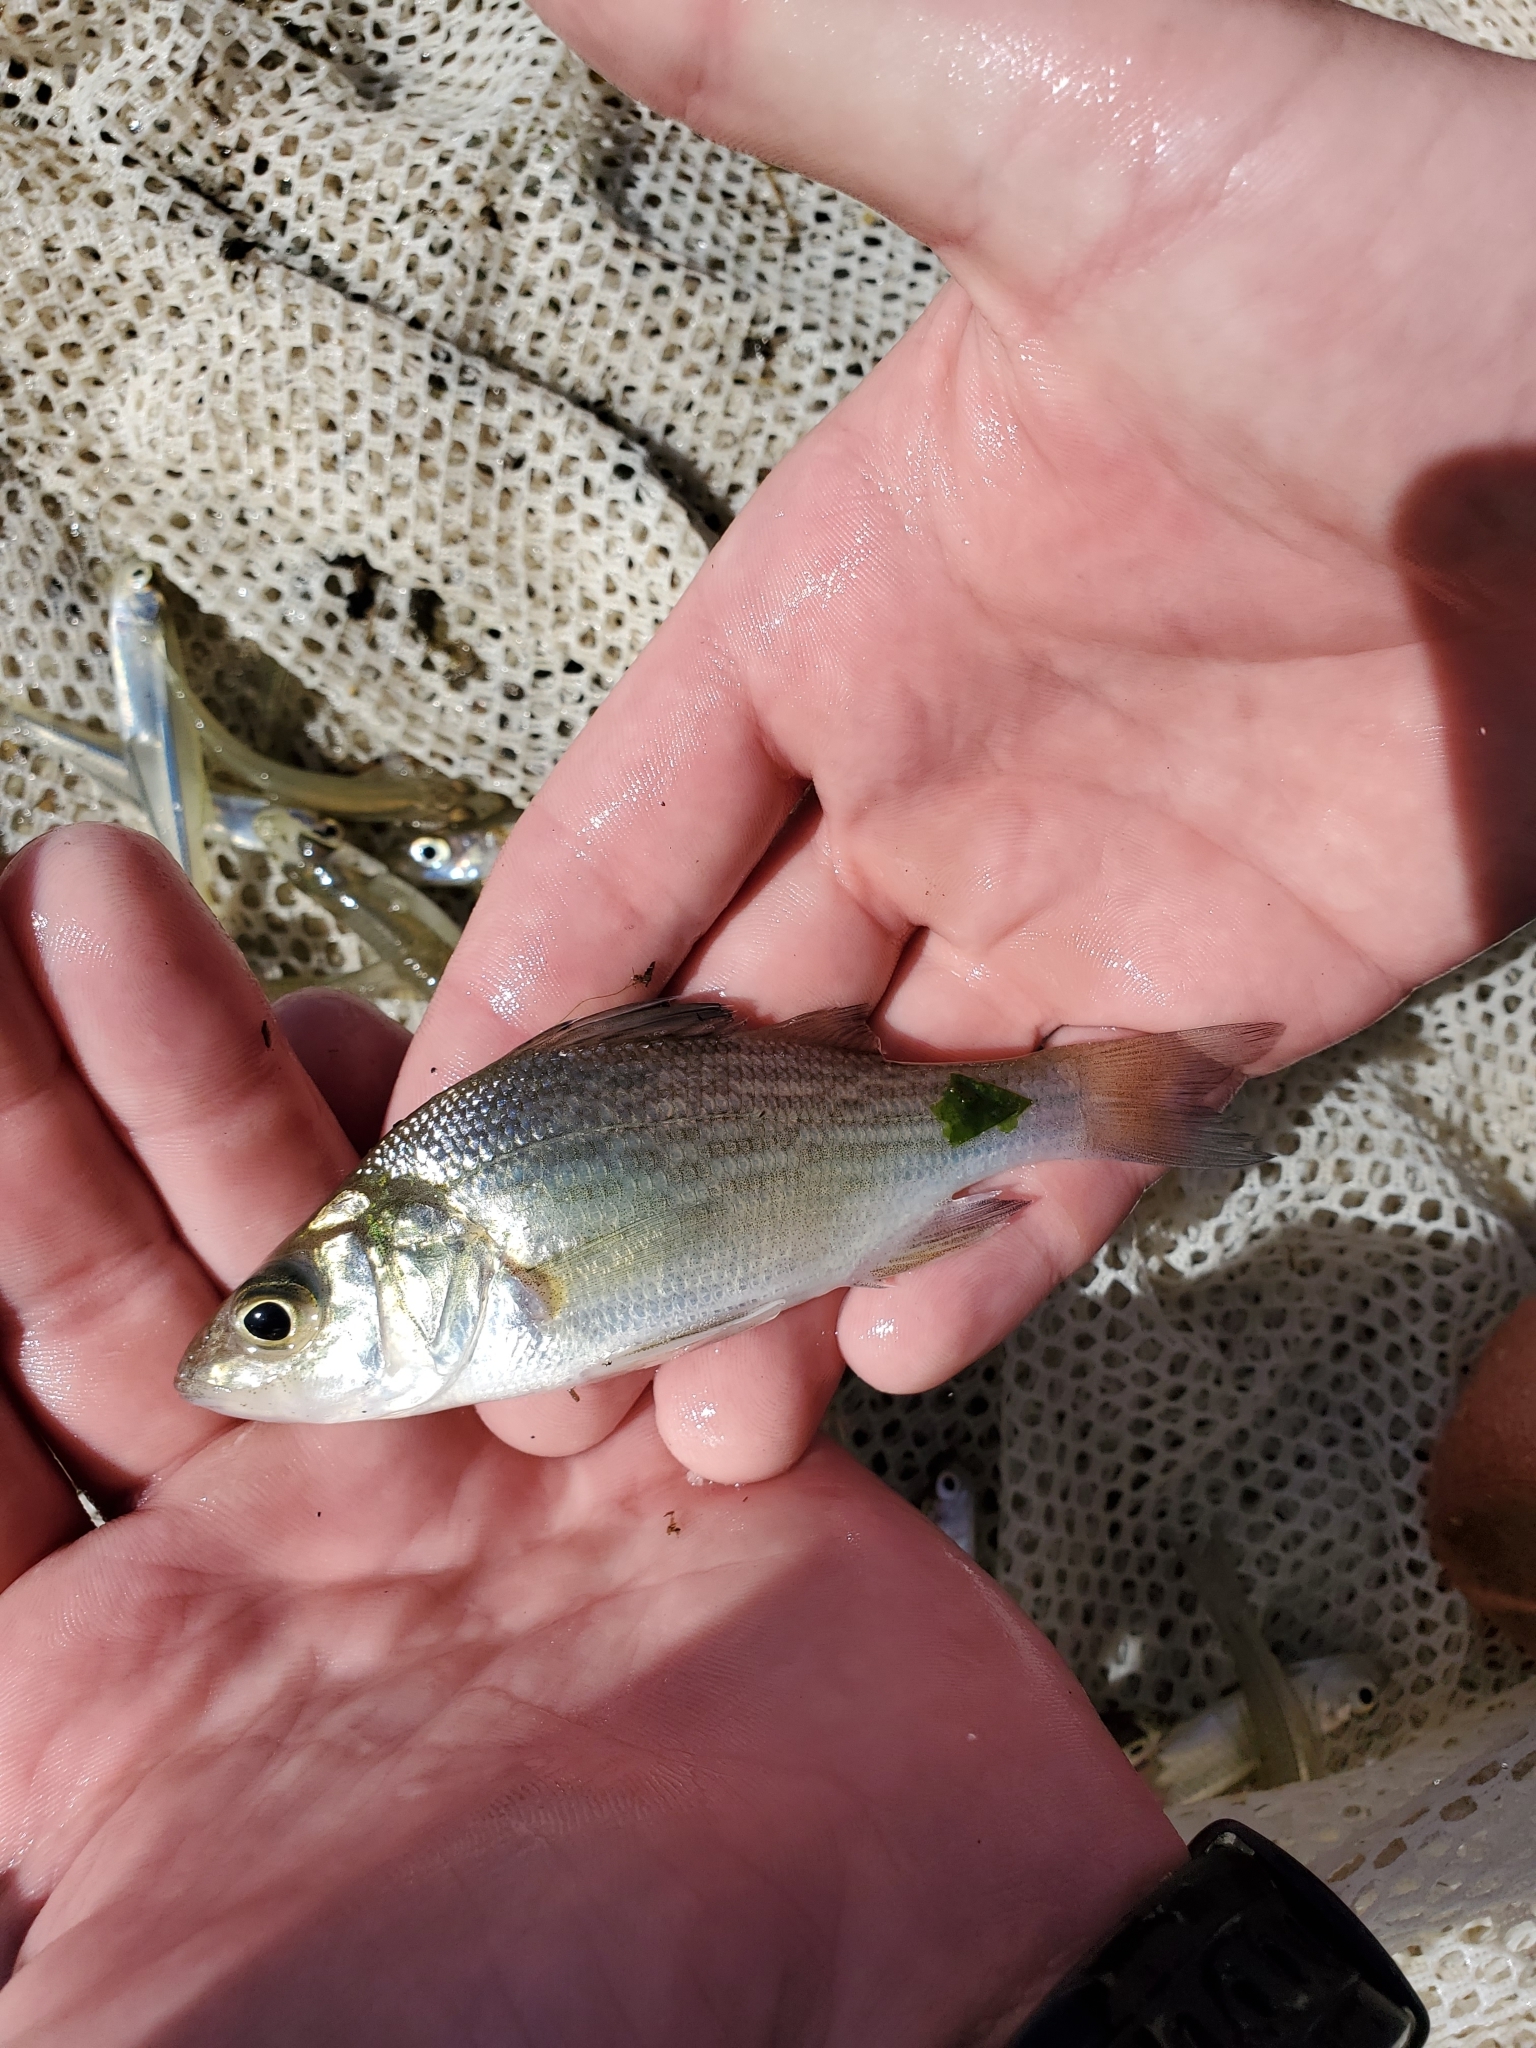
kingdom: Animalia
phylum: Chordata
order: Perciformes
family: Moronidae
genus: Morone
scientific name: Morone americana
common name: White perch
